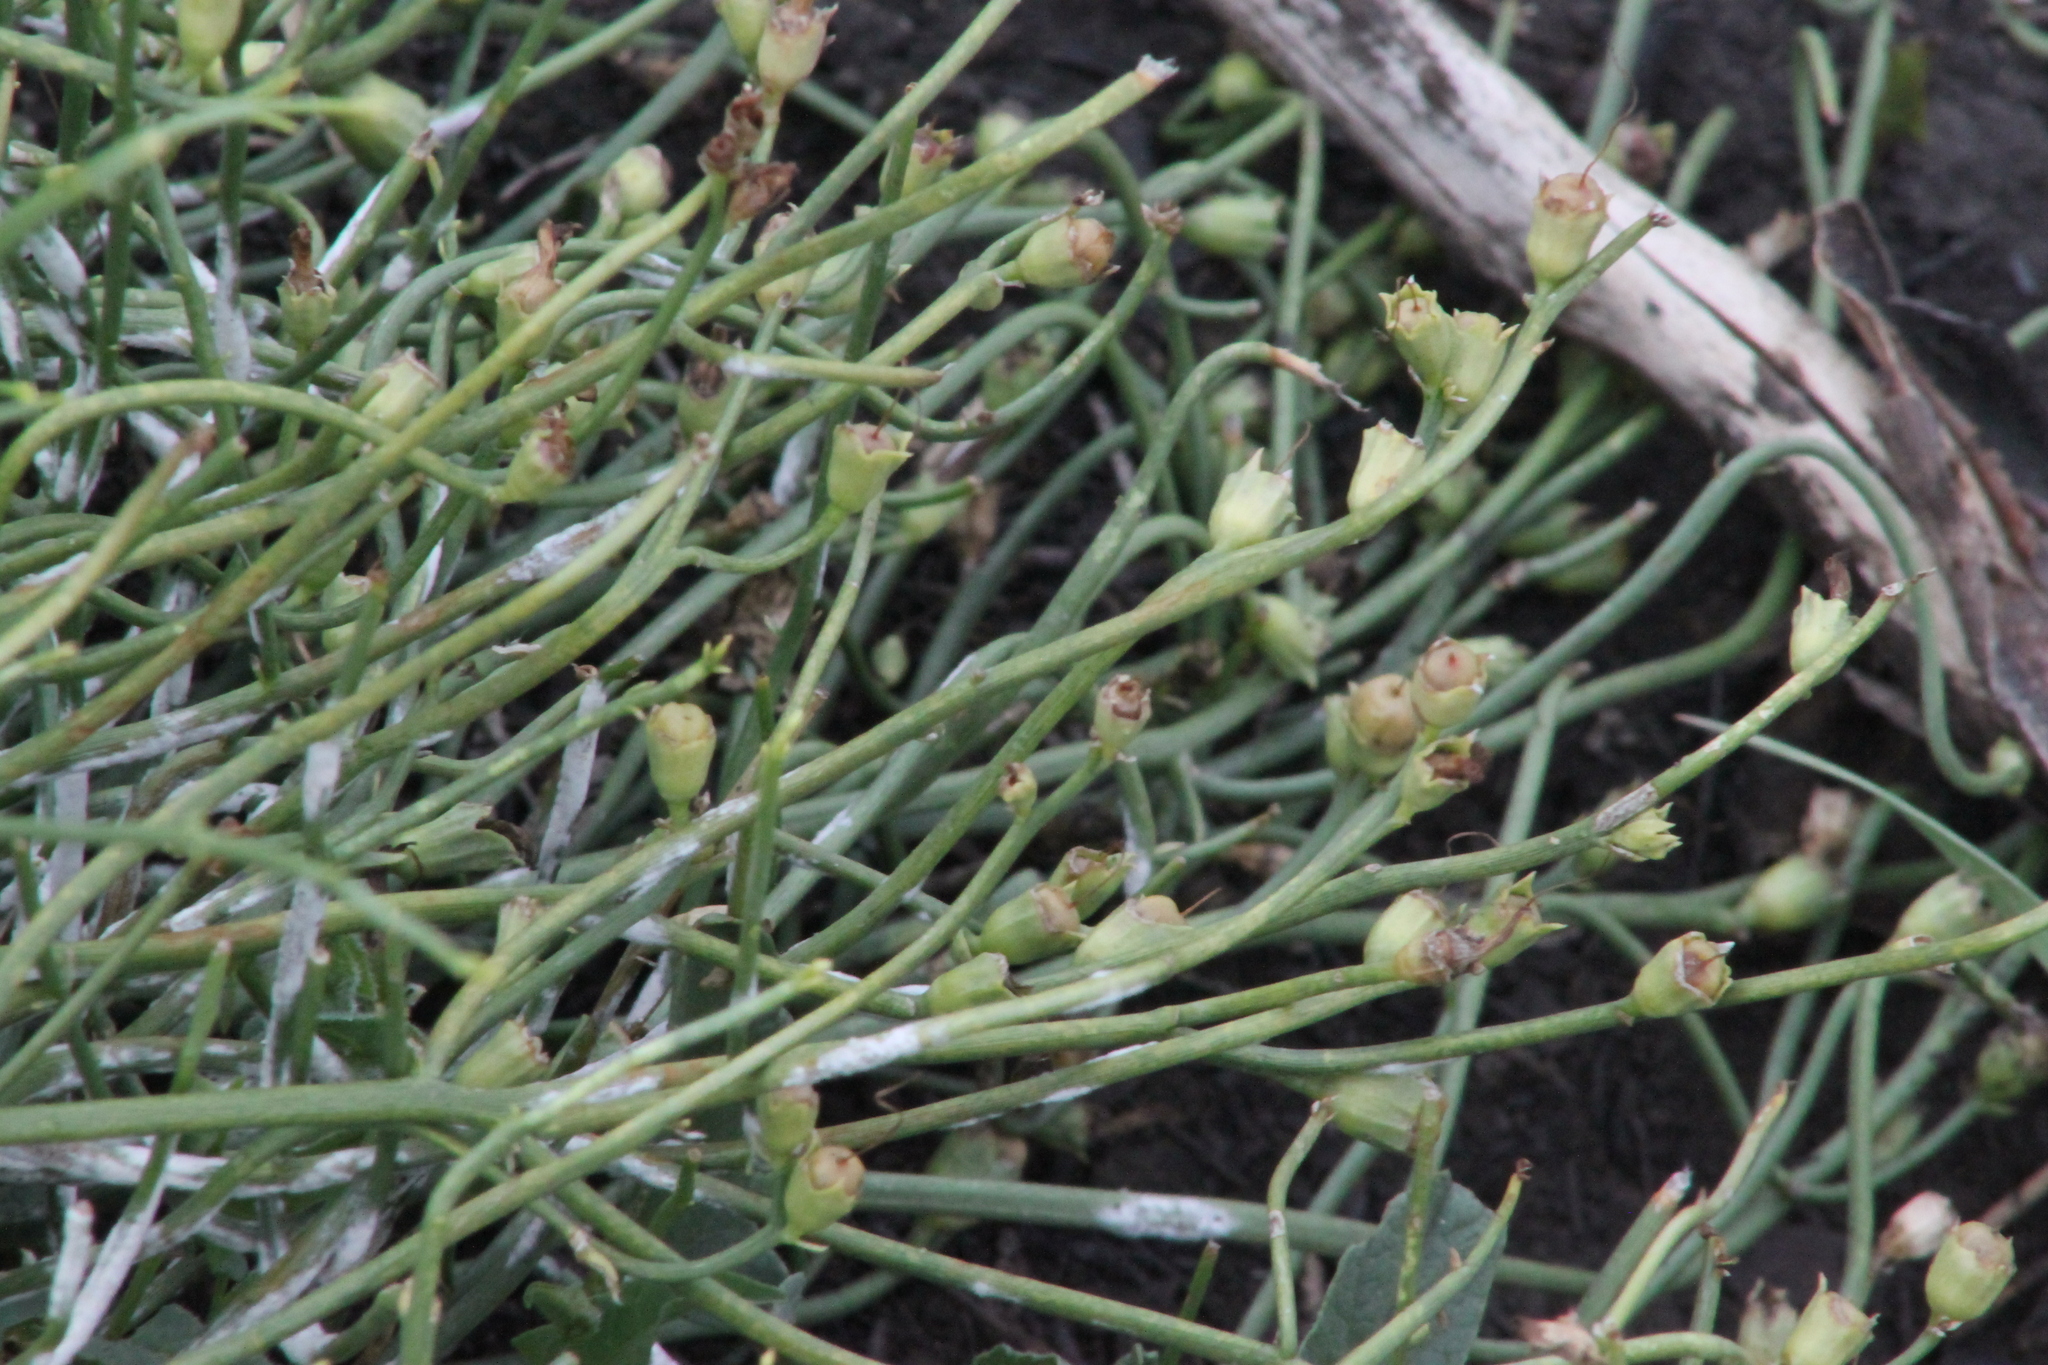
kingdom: Plantae
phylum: Tracheophyta
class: Magnoliopsida
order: Lamiales
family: Mazaceae
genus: Dodartia
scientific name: Dodartia orientalis
